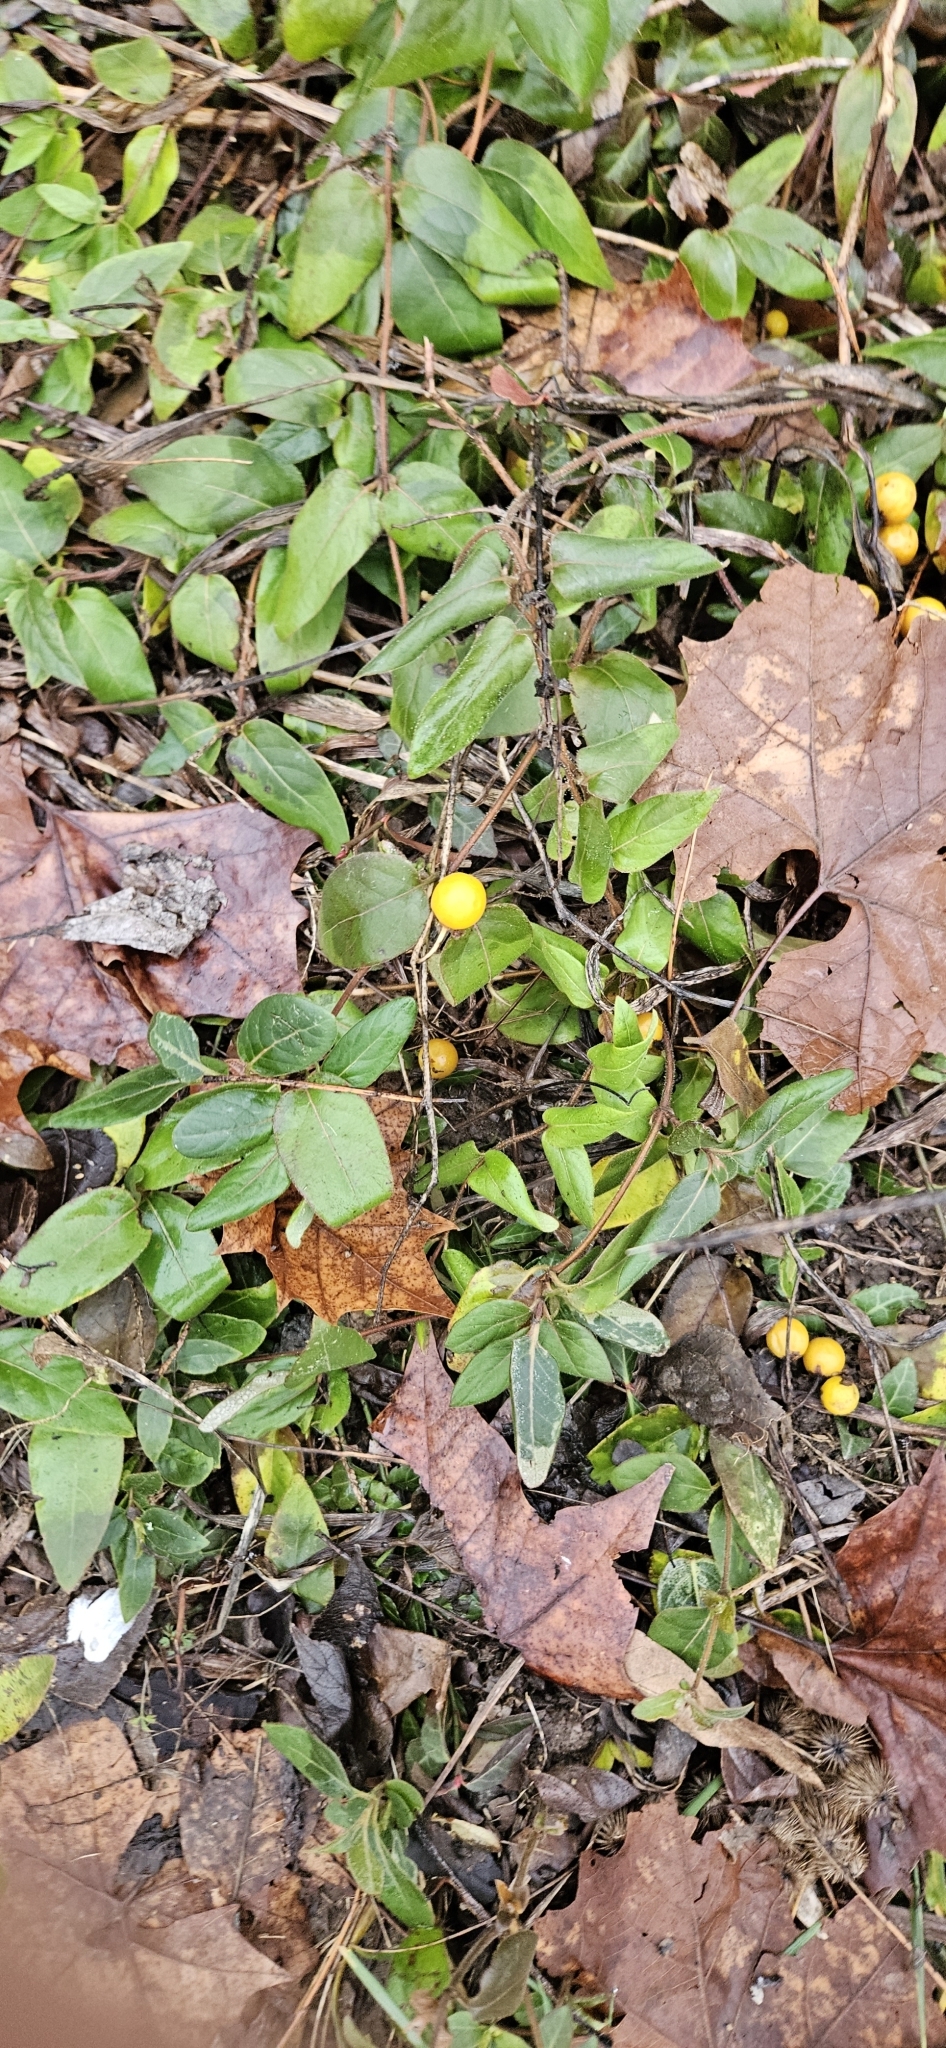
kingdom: Plantae
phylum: Tracheophyta
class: Magnoliopsida
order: Solanales
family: Solanaceae
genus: Solanum
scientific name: Solanum carolinense
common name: Horse-nettle
